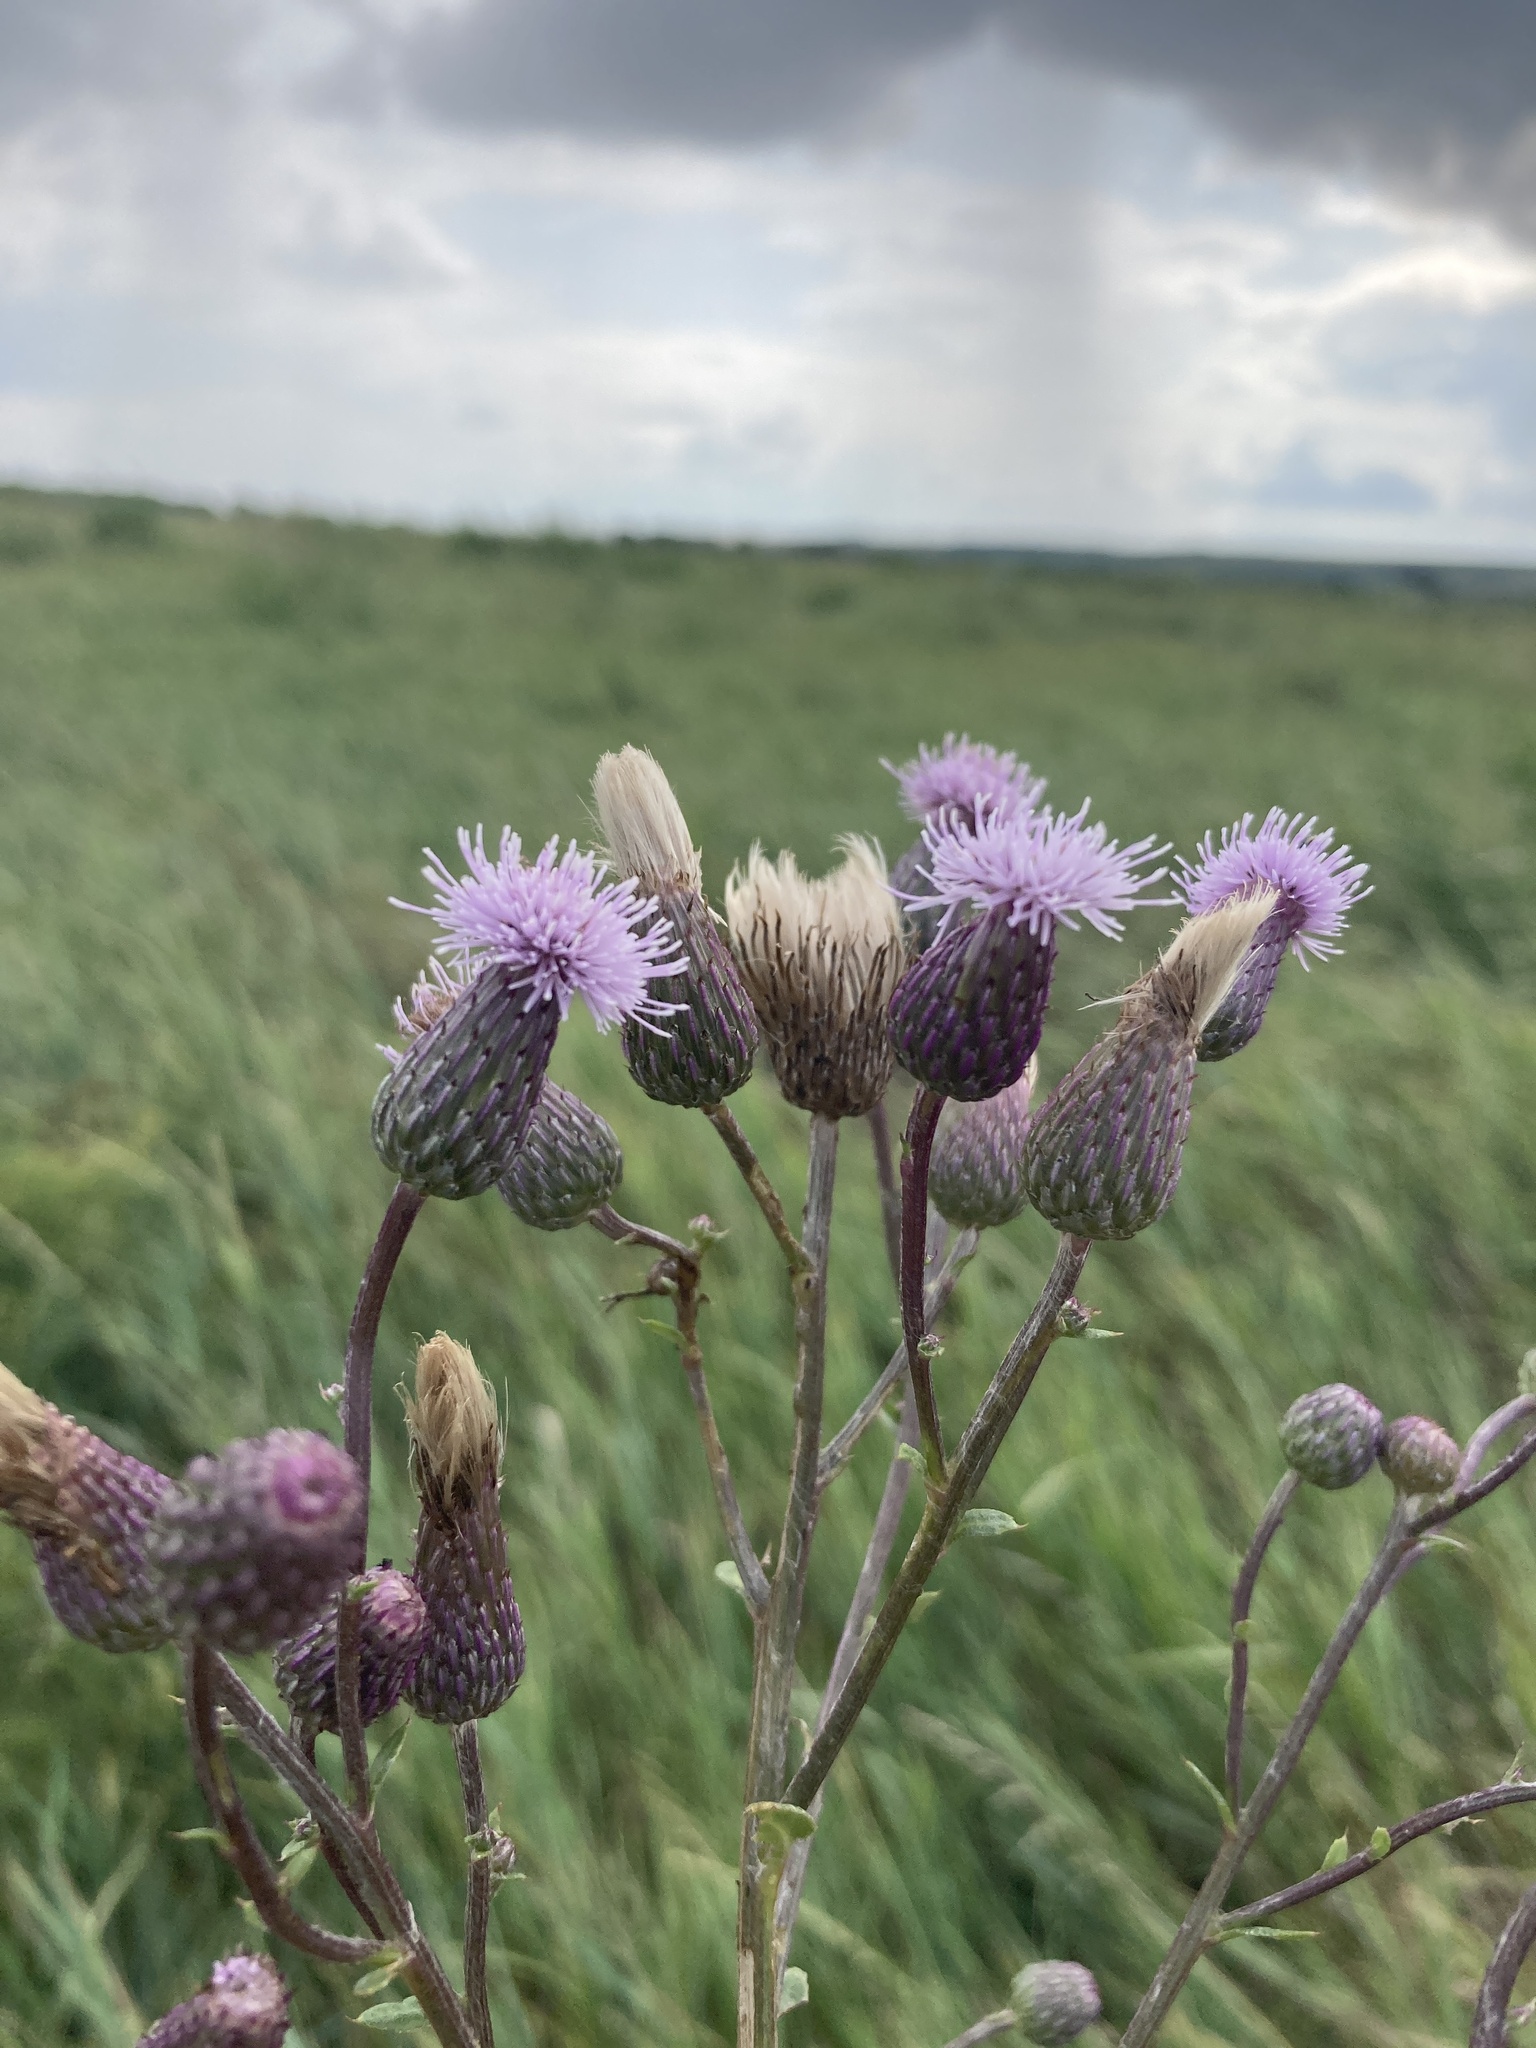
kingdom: Plantae
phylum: Tracheophyta
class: Magnoliopsida
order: Asterales
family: Asteraceae
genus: Cirsium
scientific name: Cirsium arvense
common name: Creeping thistle
